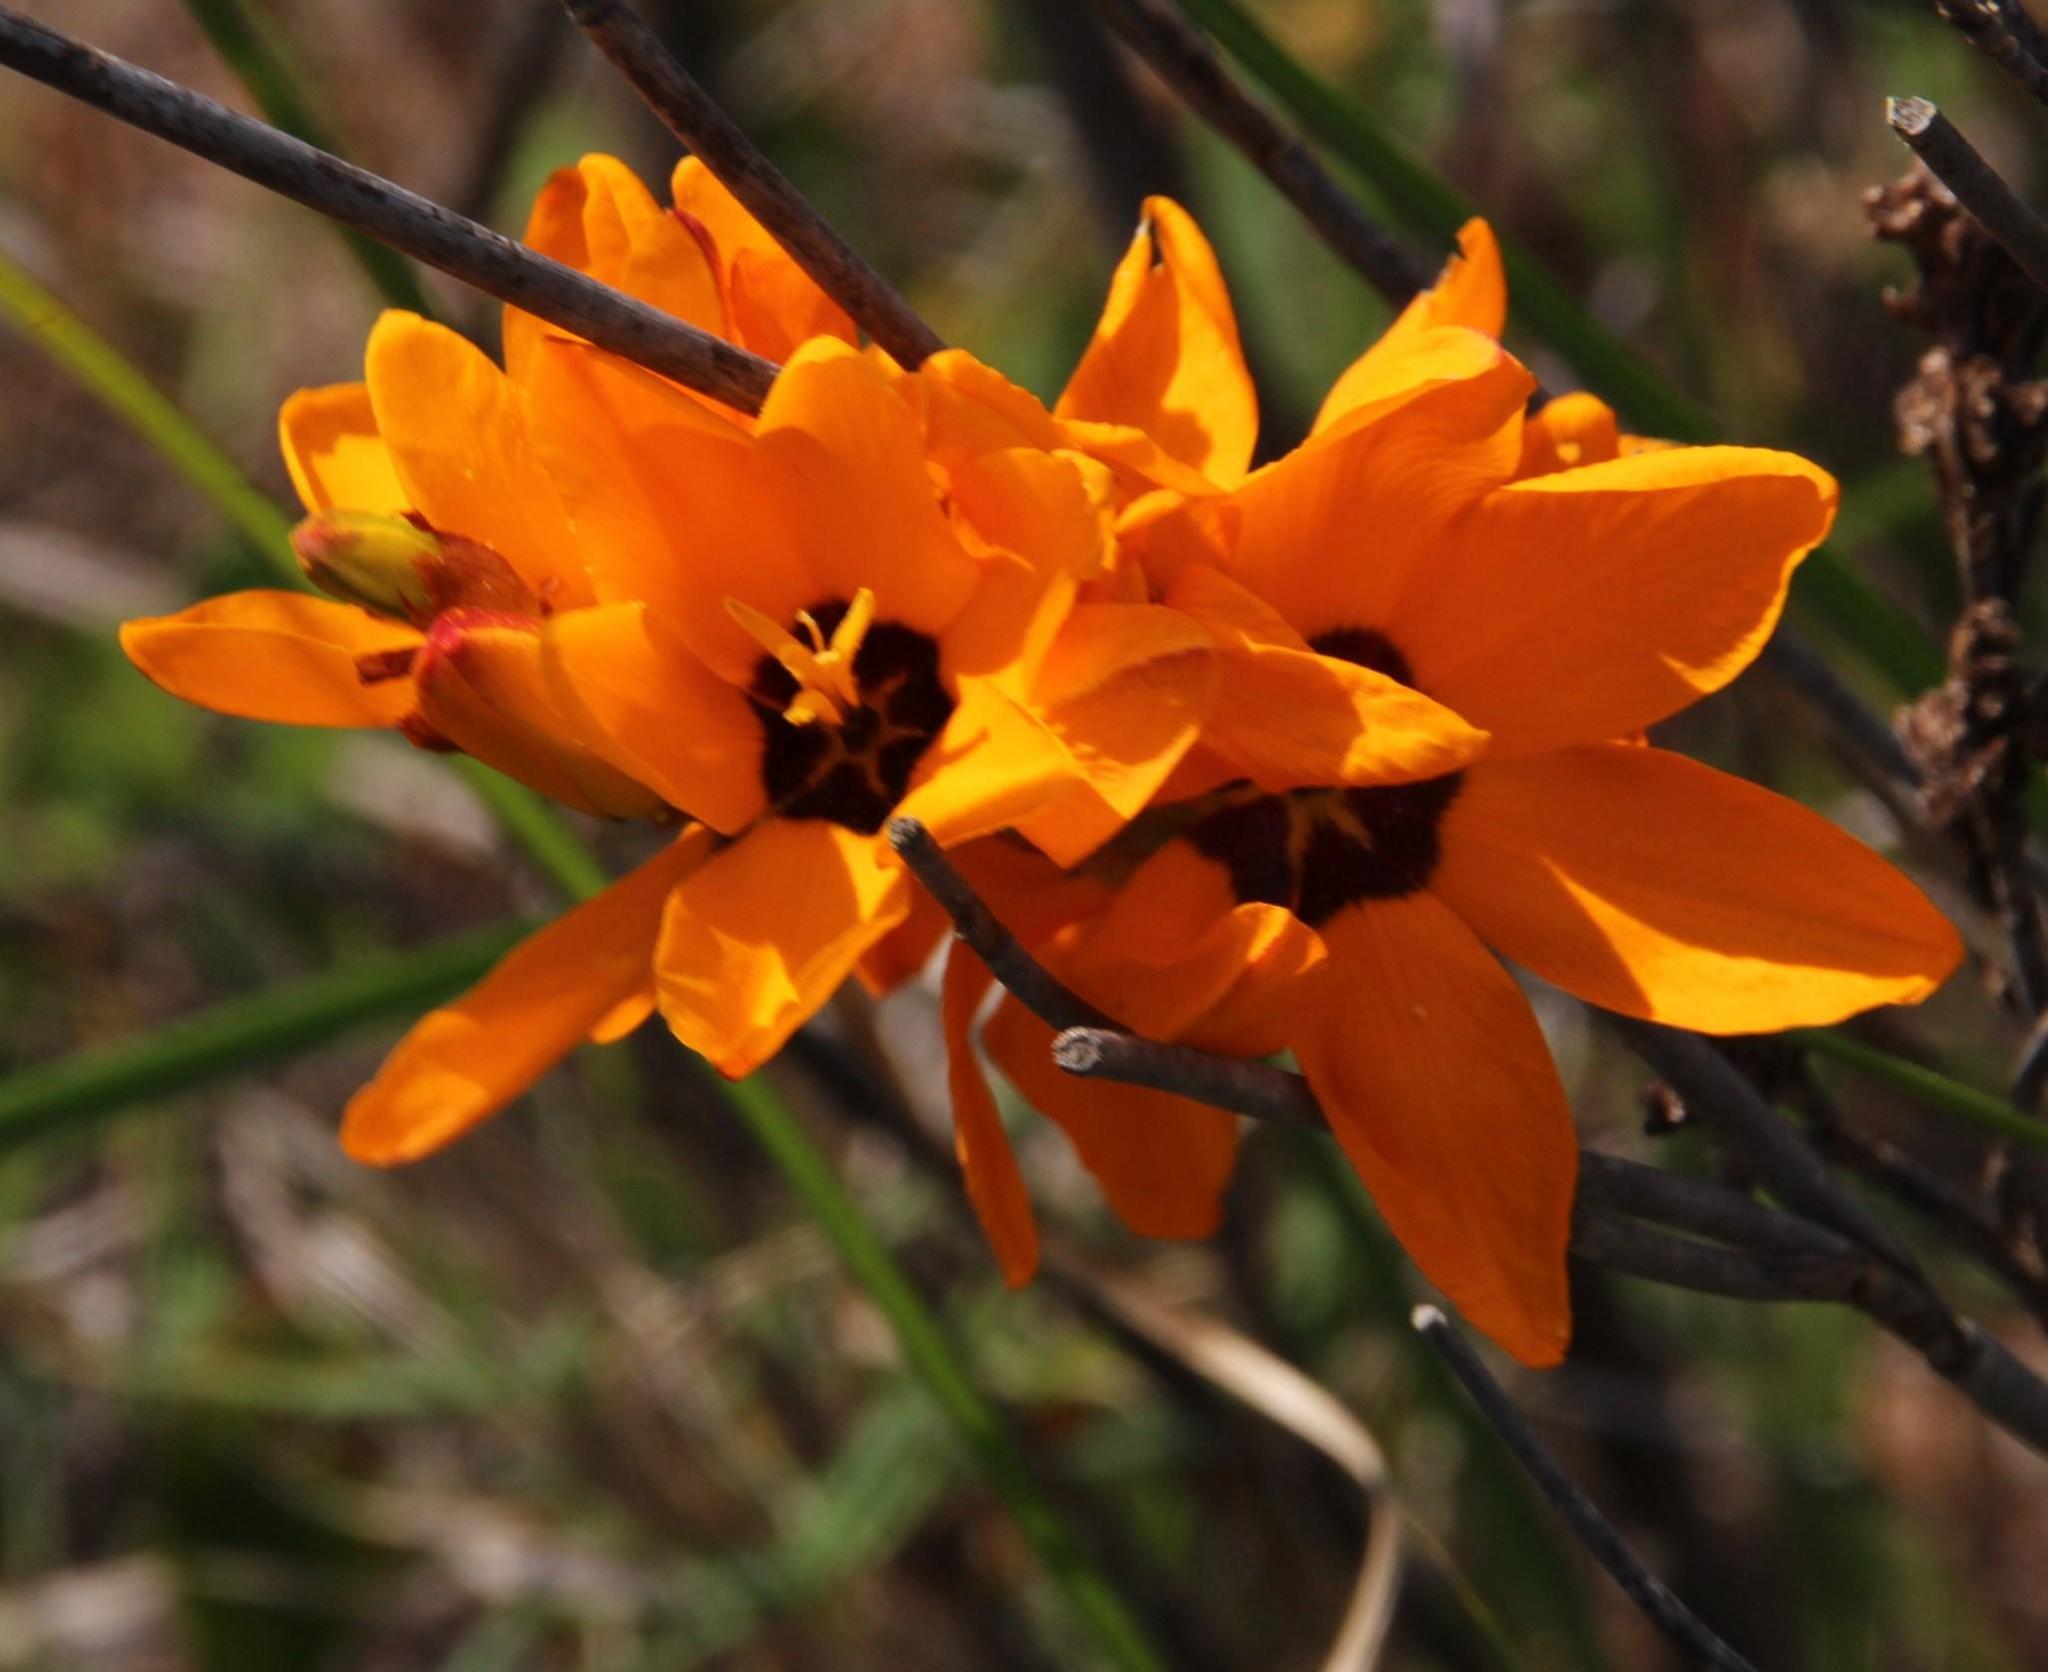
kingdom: Plantae
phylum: Tracheophyta
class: Liliopsida
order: Asparagales
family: Iridaceae
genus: Ixia
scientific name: Ixia dubia
